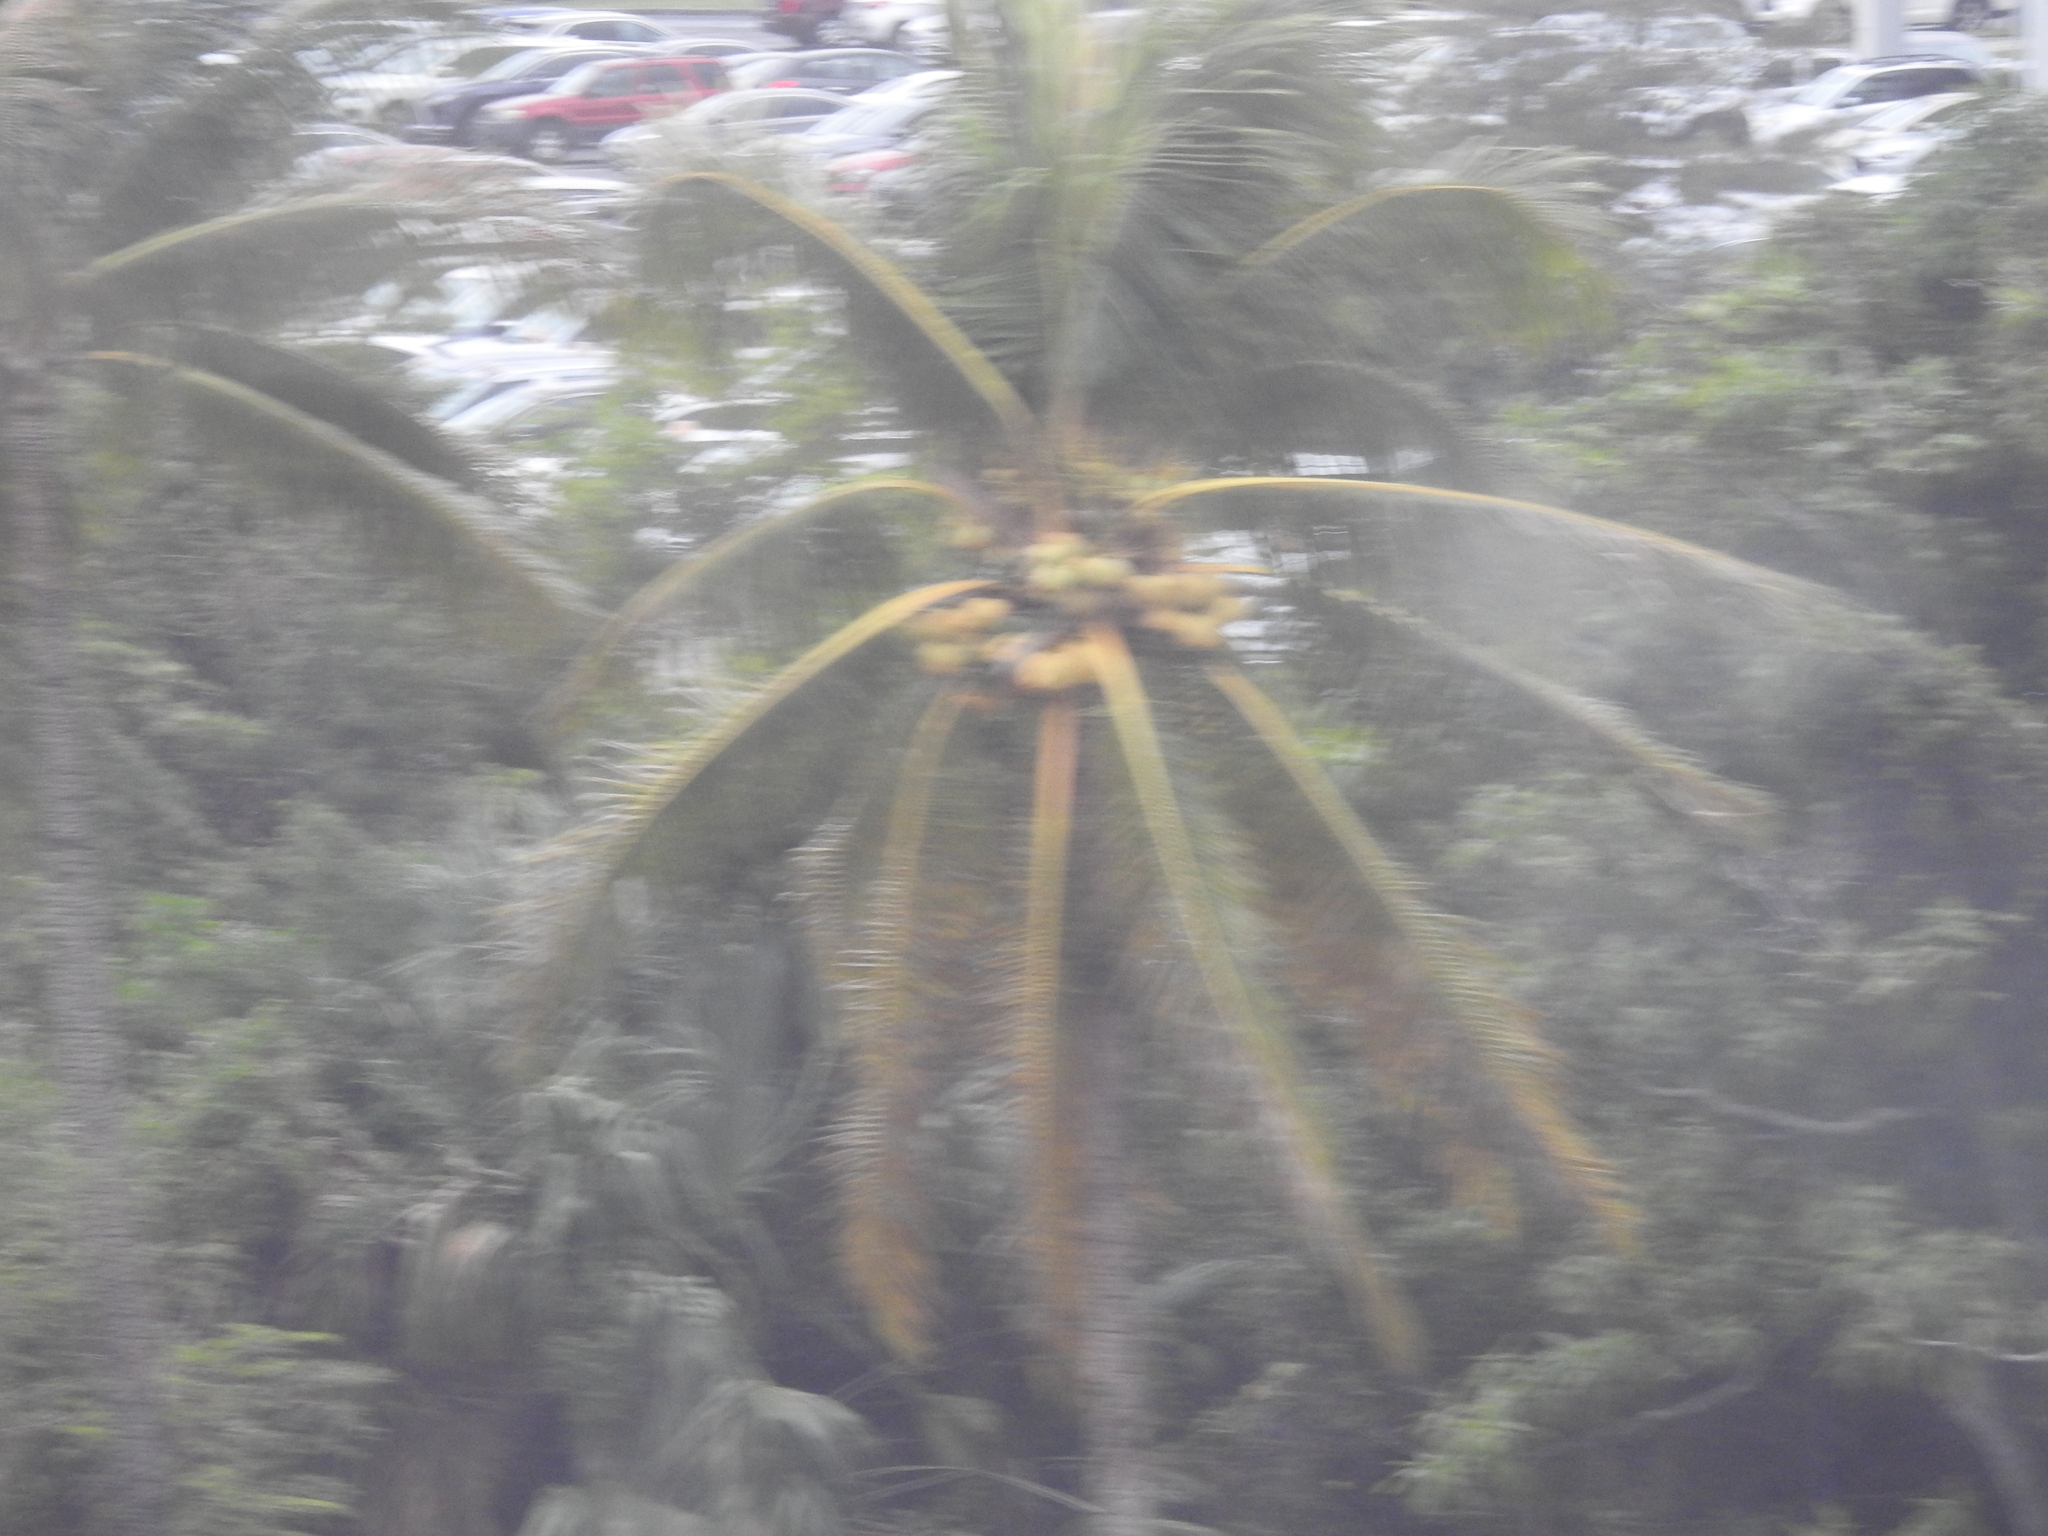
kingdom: Plantae
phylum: Tracheophyta
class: Liliopsida
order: Arecales
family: Arecaceae
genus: Cocos
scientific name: Cocos nucifera
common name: Coconut palm
